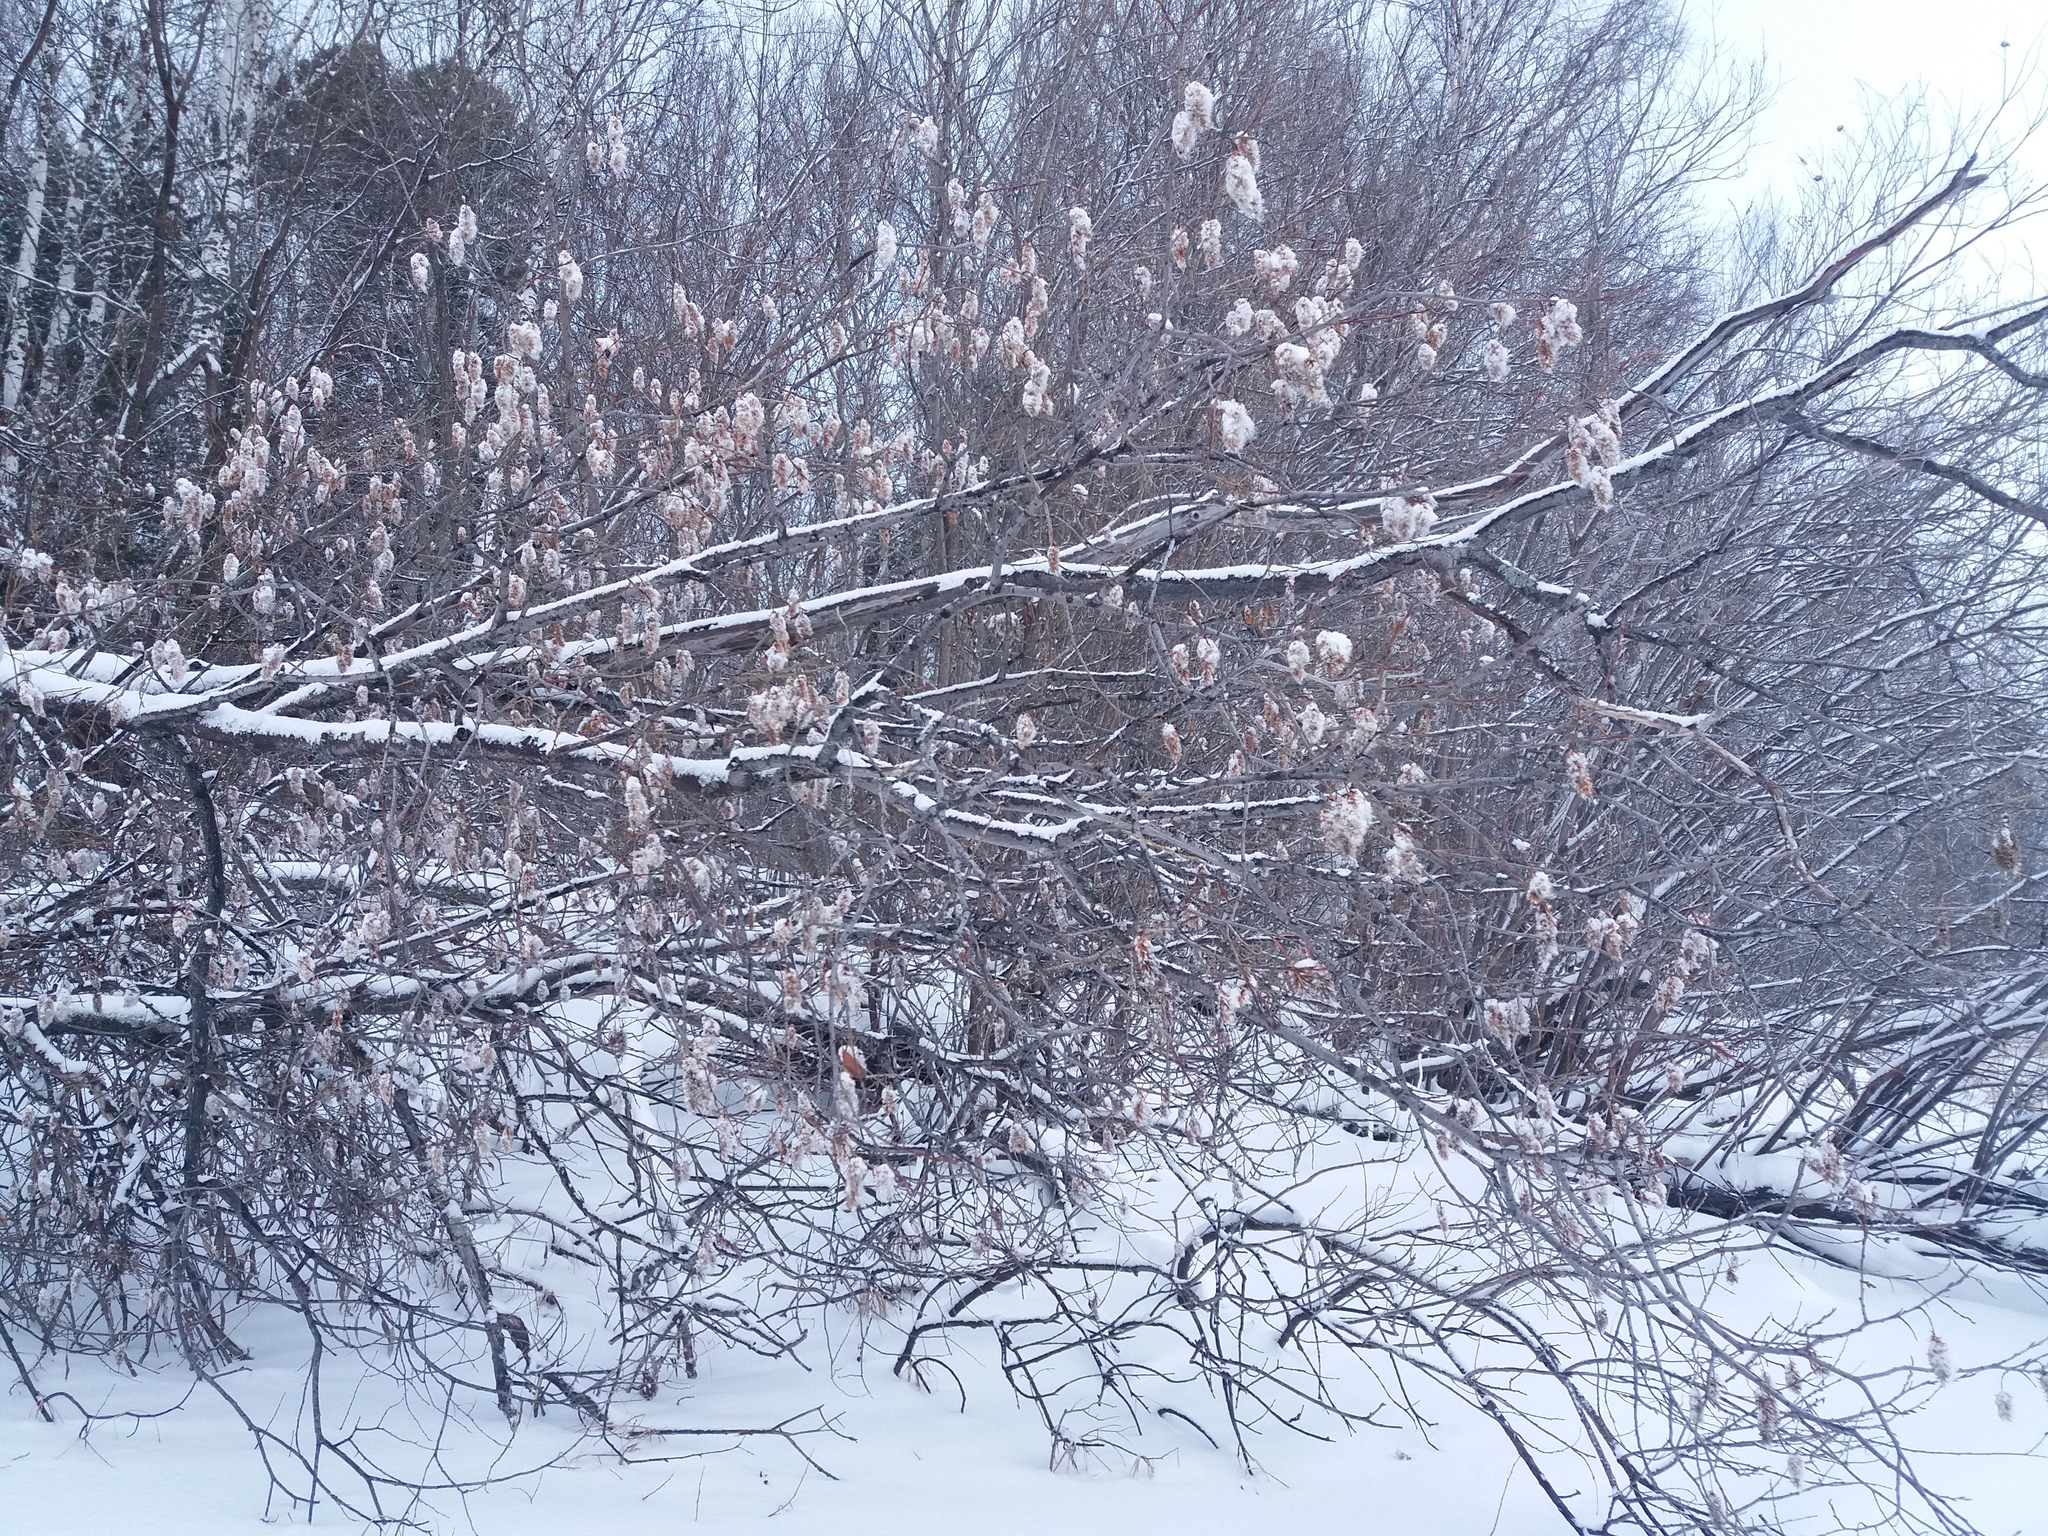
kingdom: Plantae
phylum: Tracheophyta
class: Magnoliopsida
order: Malpighiales
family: Salicaceae
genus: Salix
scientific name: Salix pentandra
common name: Bay willow
